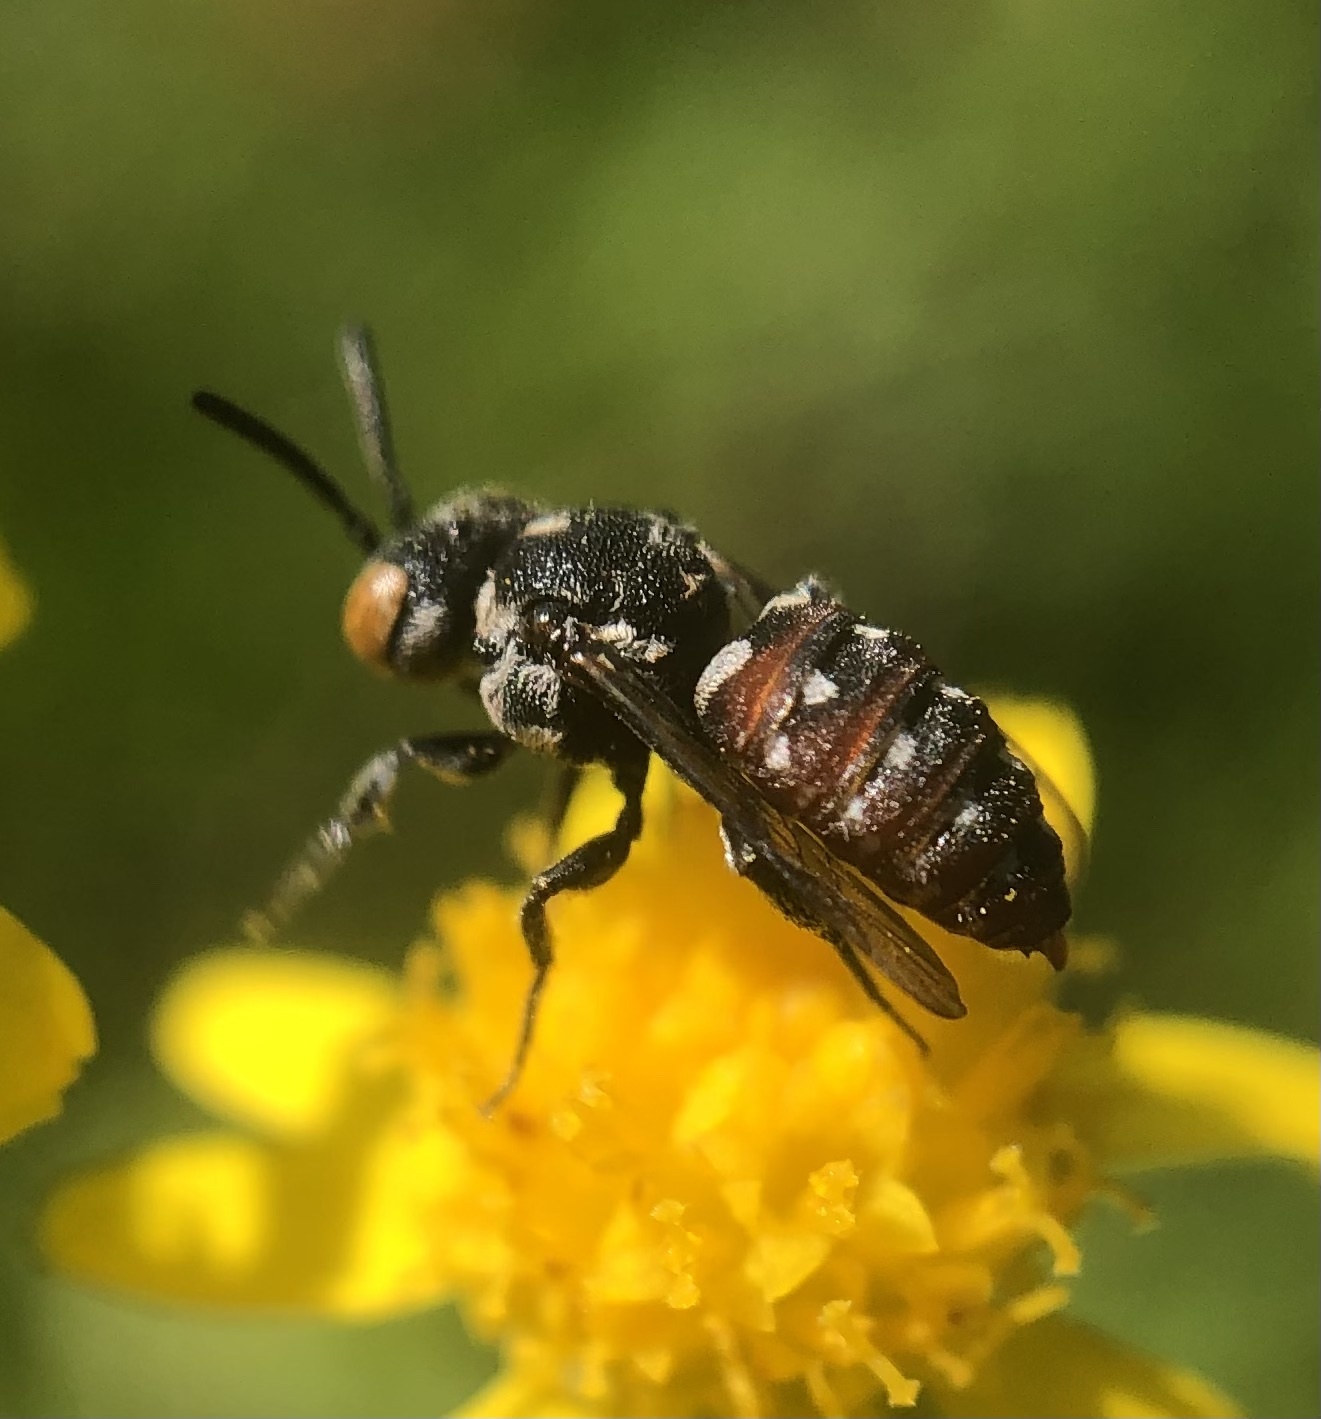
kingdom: Animalia
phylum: Arthropoda
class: Insecta
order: Hymenoptera
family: Apidae
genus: Holcopasites
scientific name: Holcopasites calliopsidis
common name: Calliopsis cuckoo nomad bee
